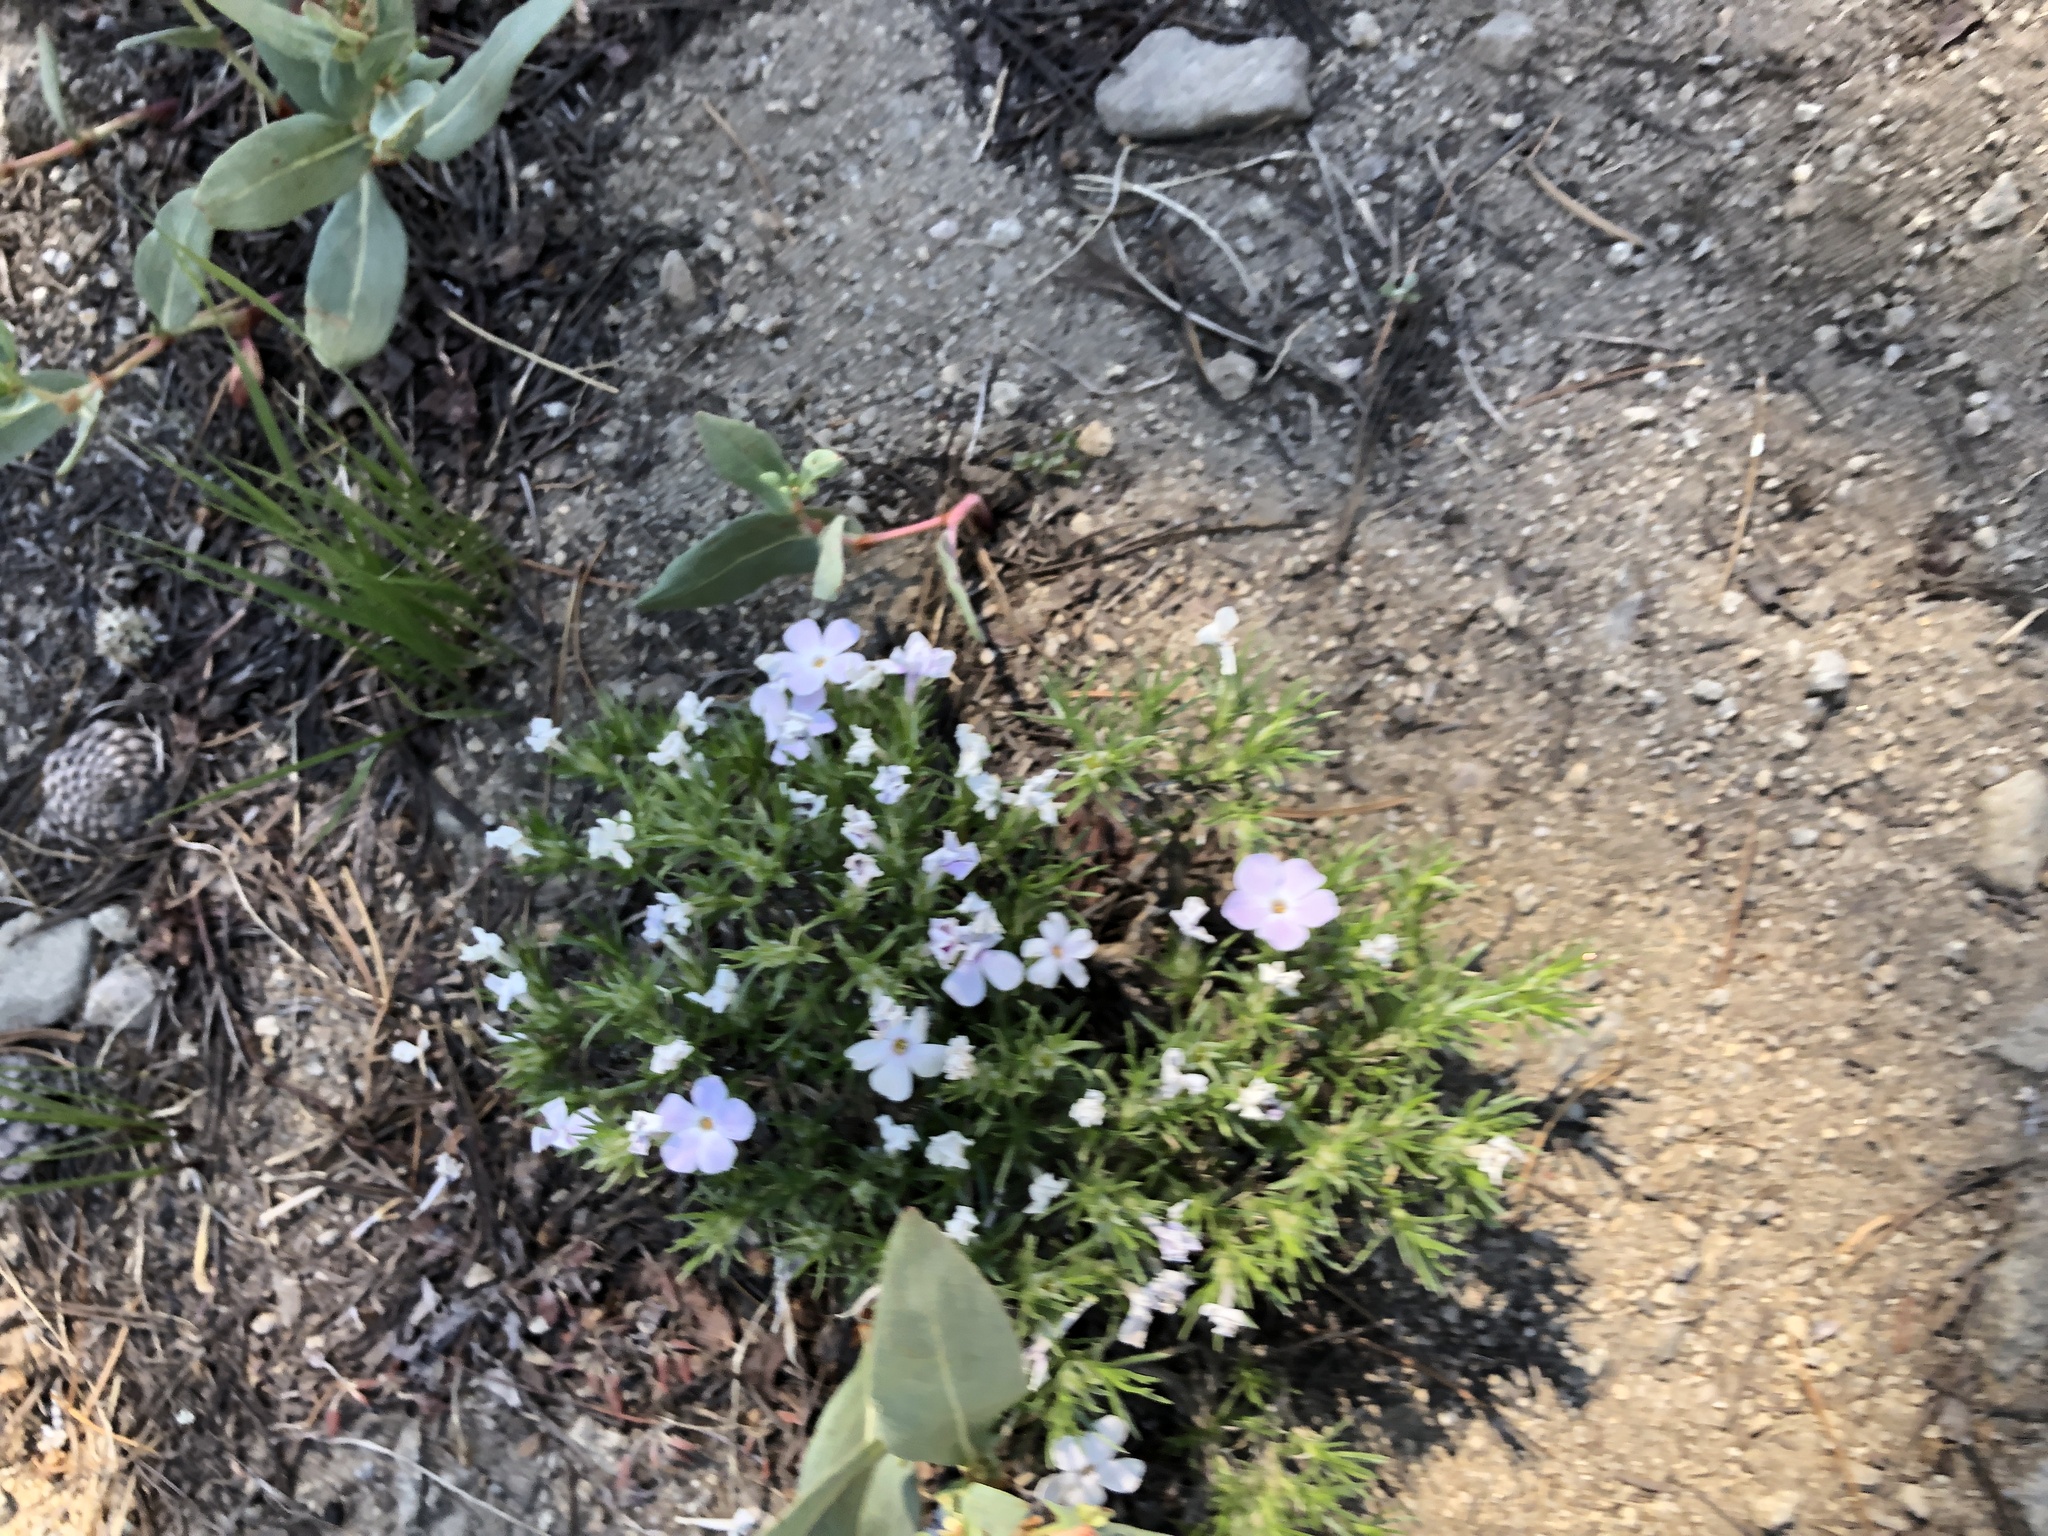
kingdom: Plantae
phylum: Tracheophyta
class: Magnoliopsida
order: Ericales
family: Polemoniaceae
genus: Phlox
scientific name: Phlox diffusa
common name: Mat phlox
